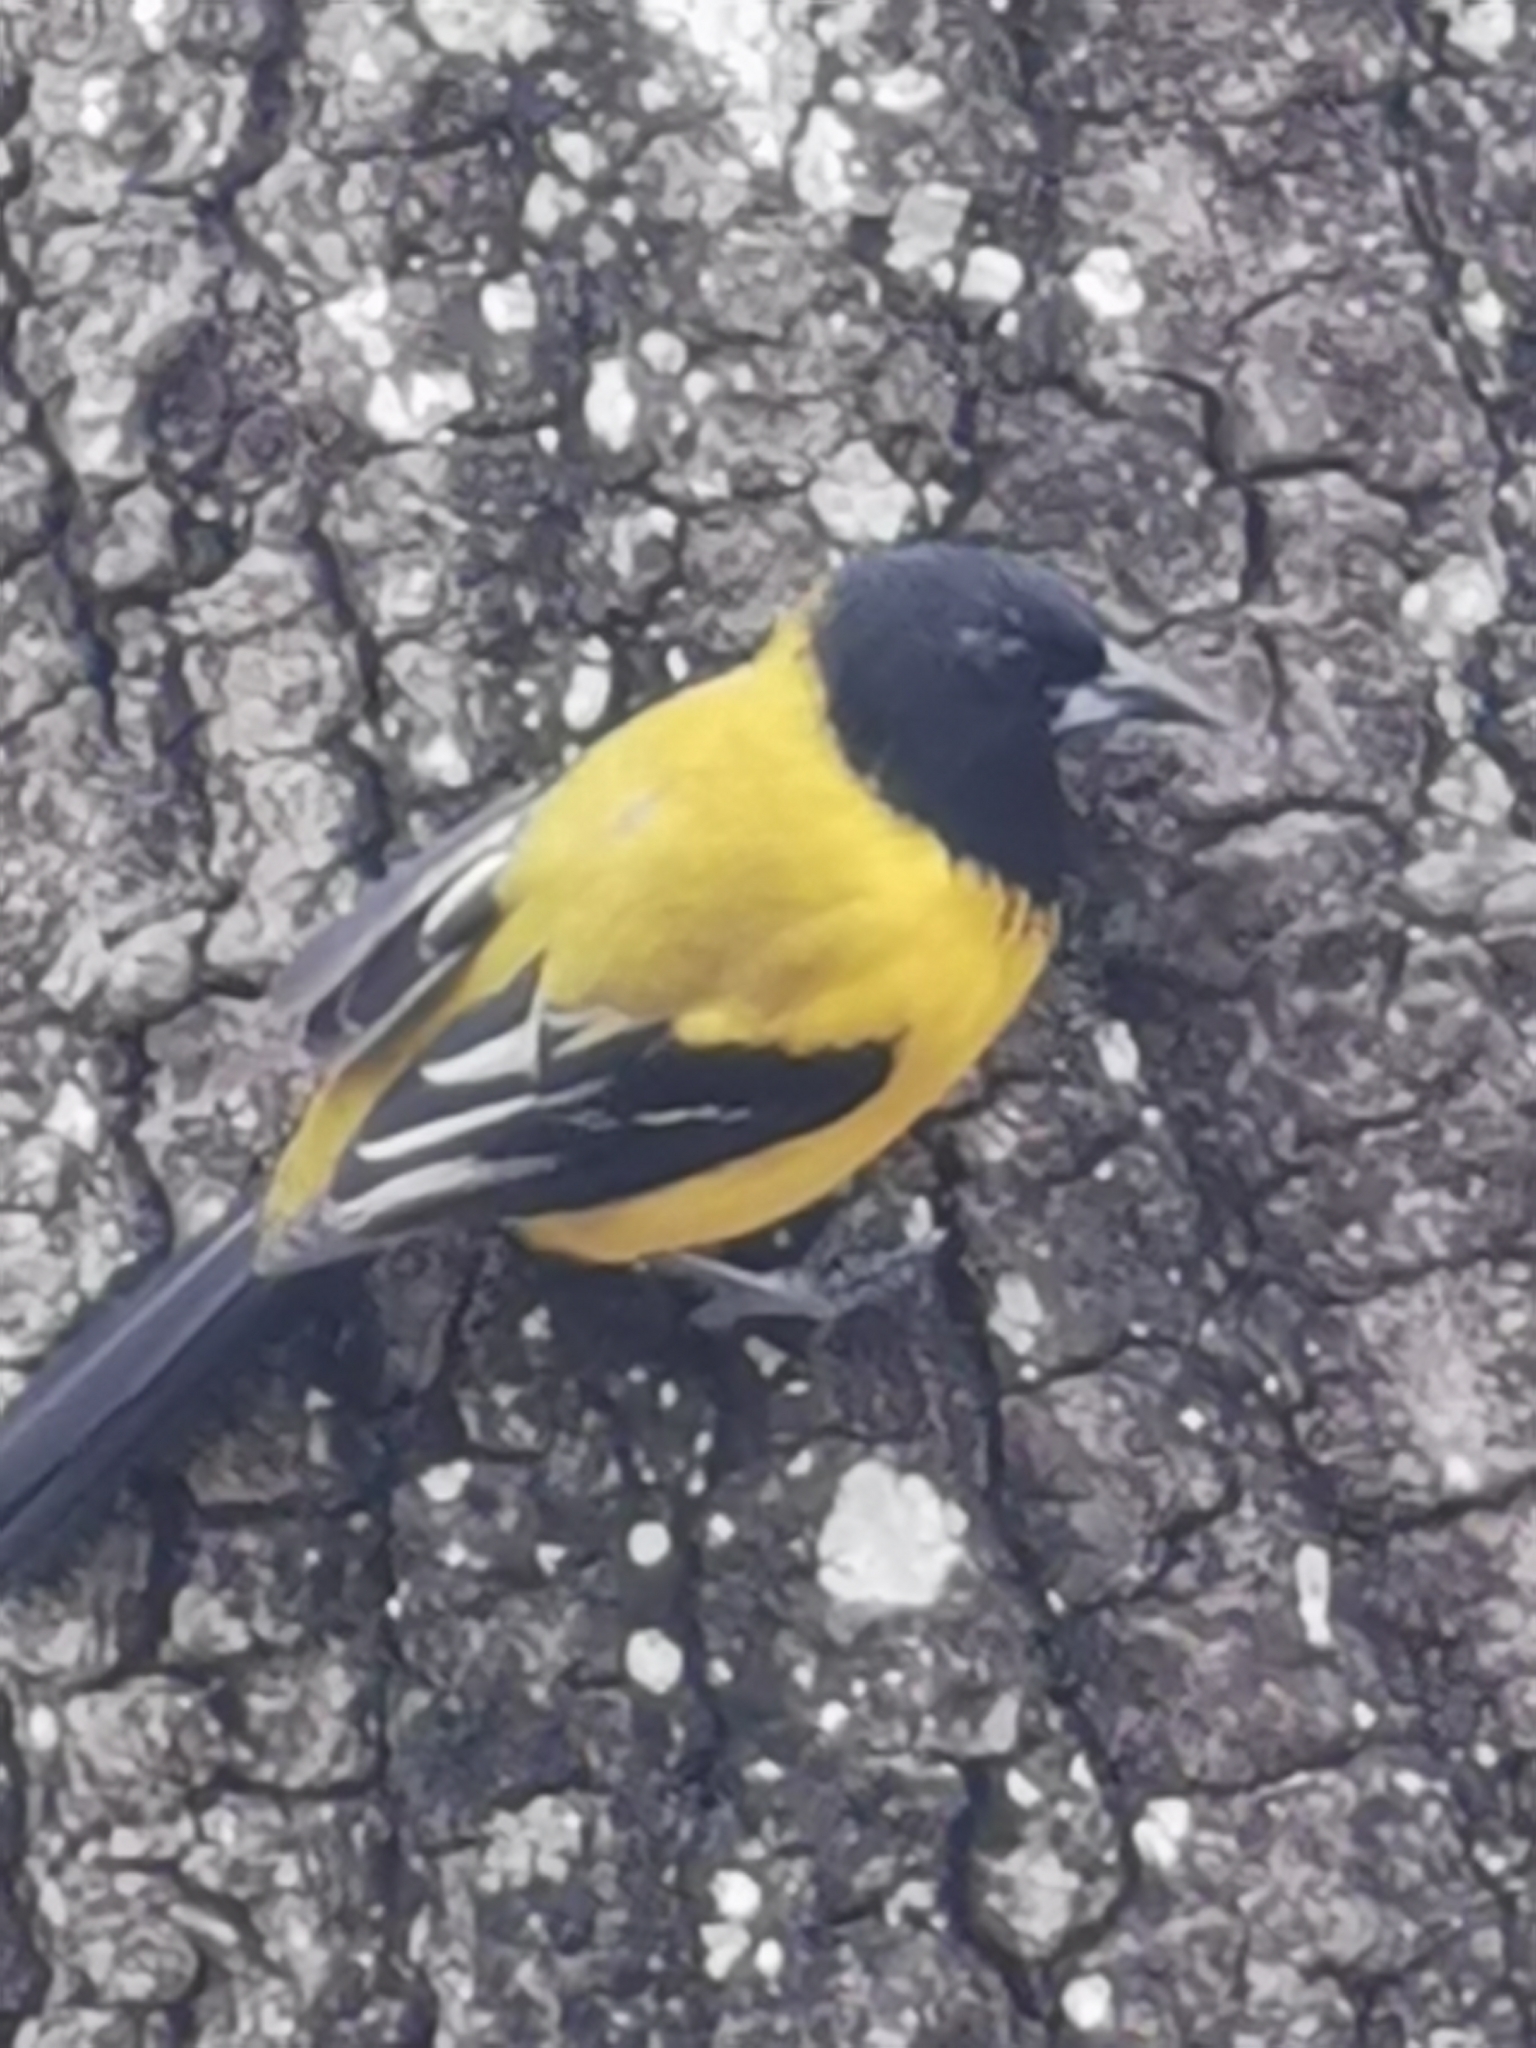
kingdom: Animalia
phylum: Chordata
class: Aves
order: Passeriformes
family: Icteridae
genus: Icterus
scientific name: Icterus graduacauda
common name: Audubon's oriole
